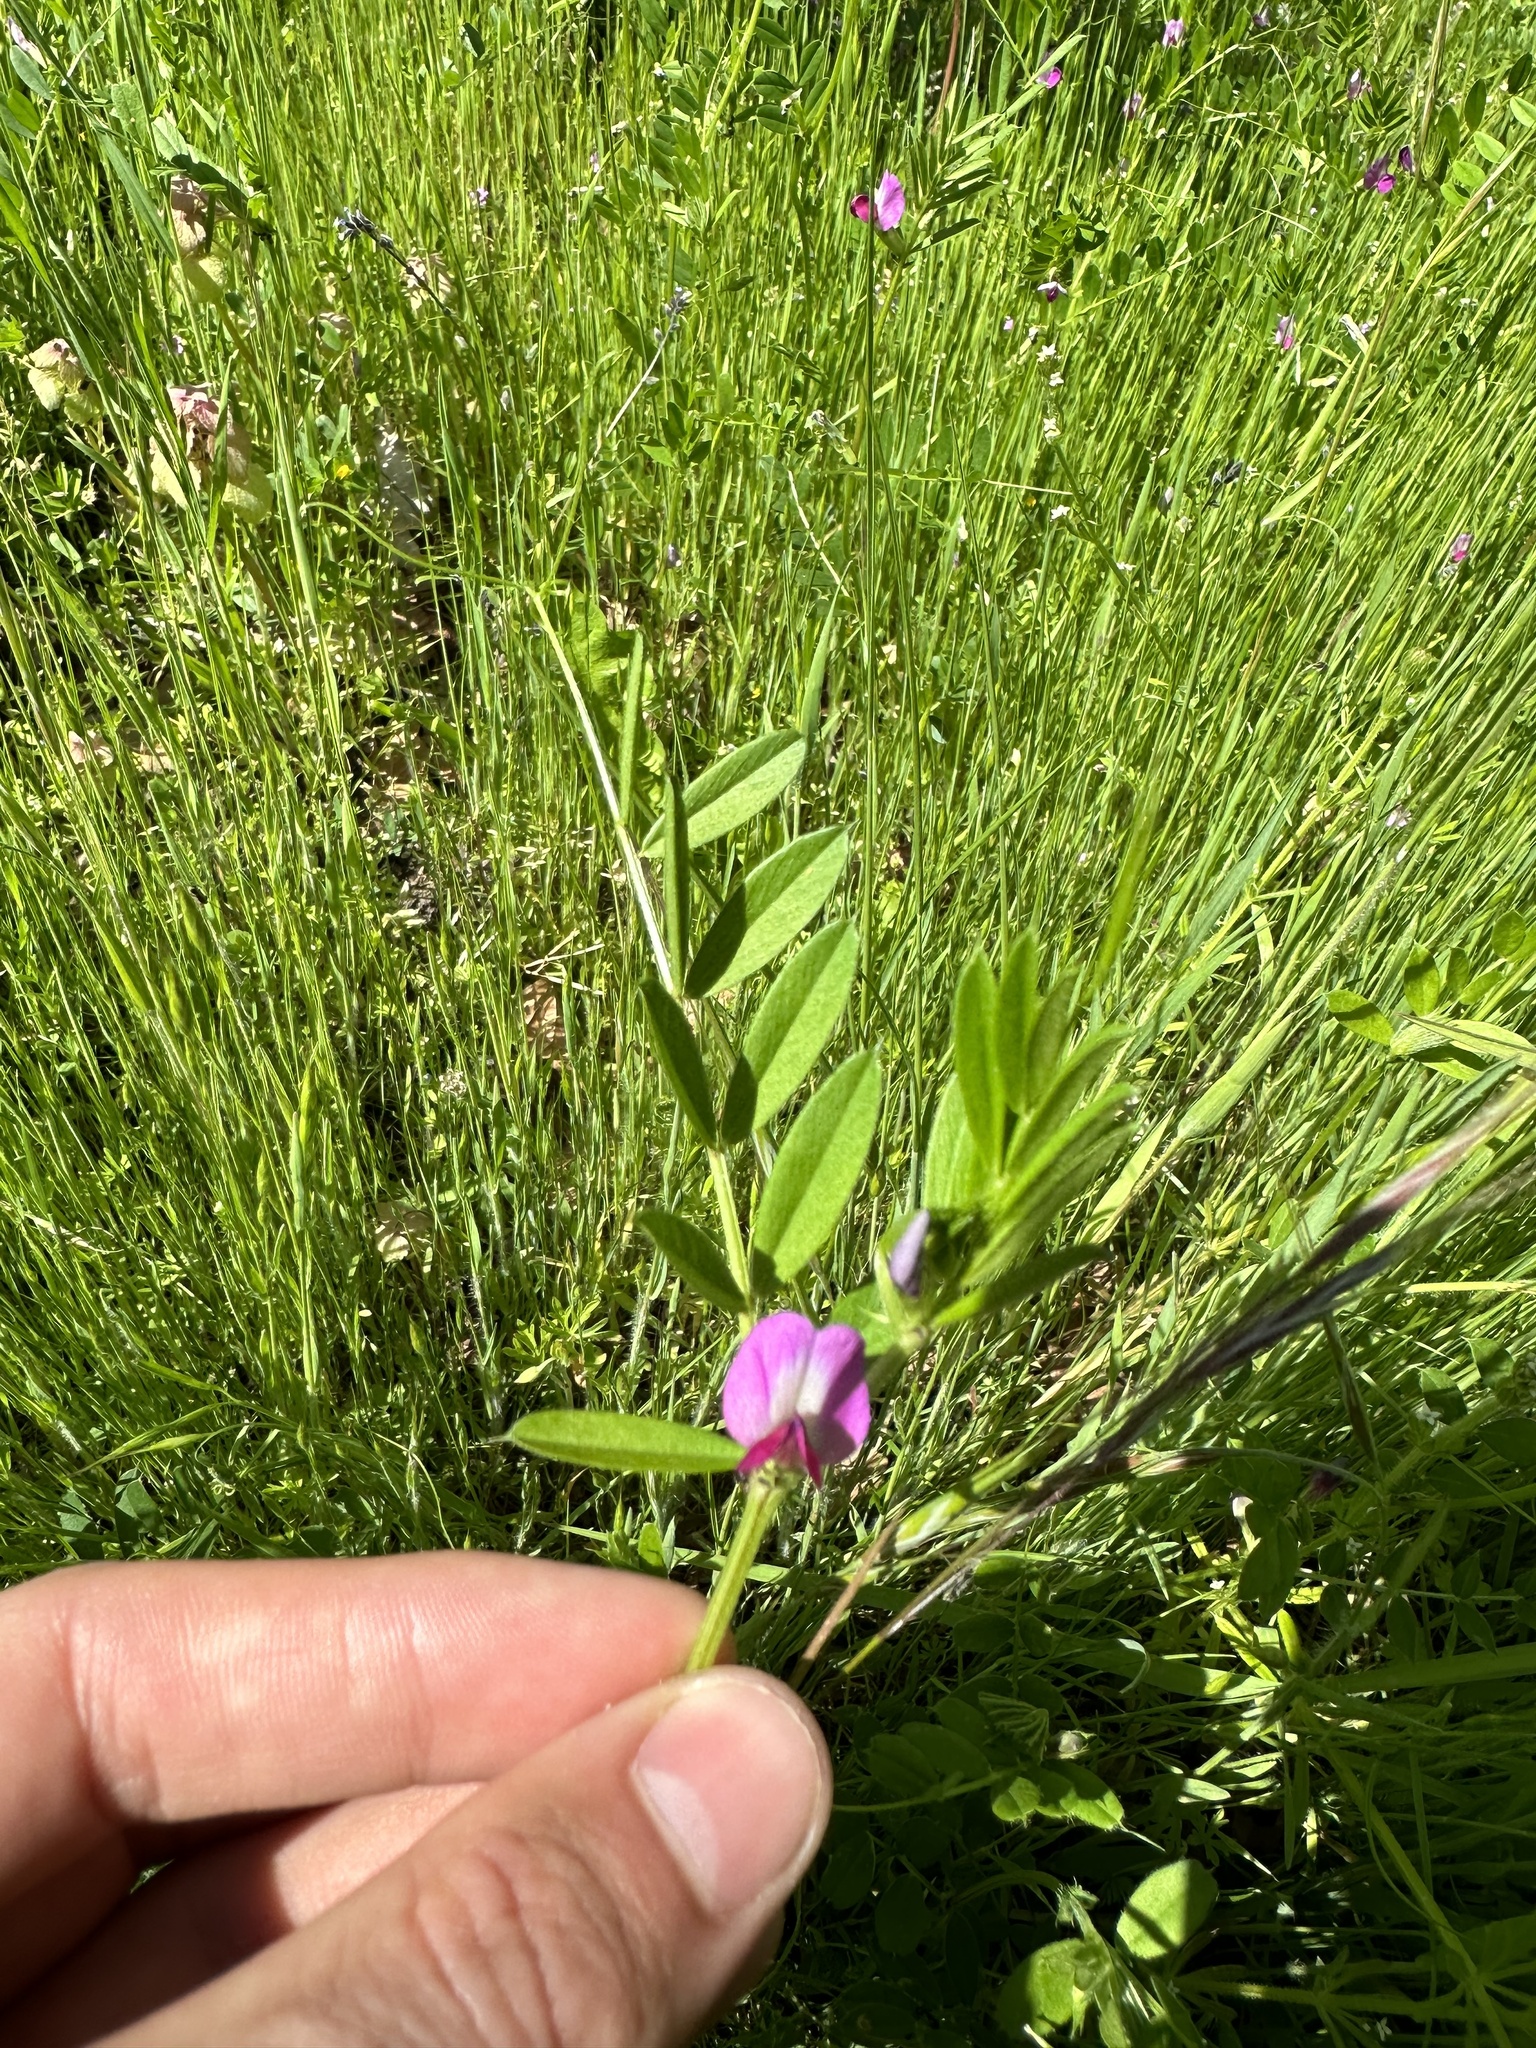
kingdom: Plantae
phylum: Tracheophyta
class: Magnoliopsida
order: Fabales
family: Fabaceae
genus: Vicia
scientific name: Vicia sativa
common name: Garden vetch
